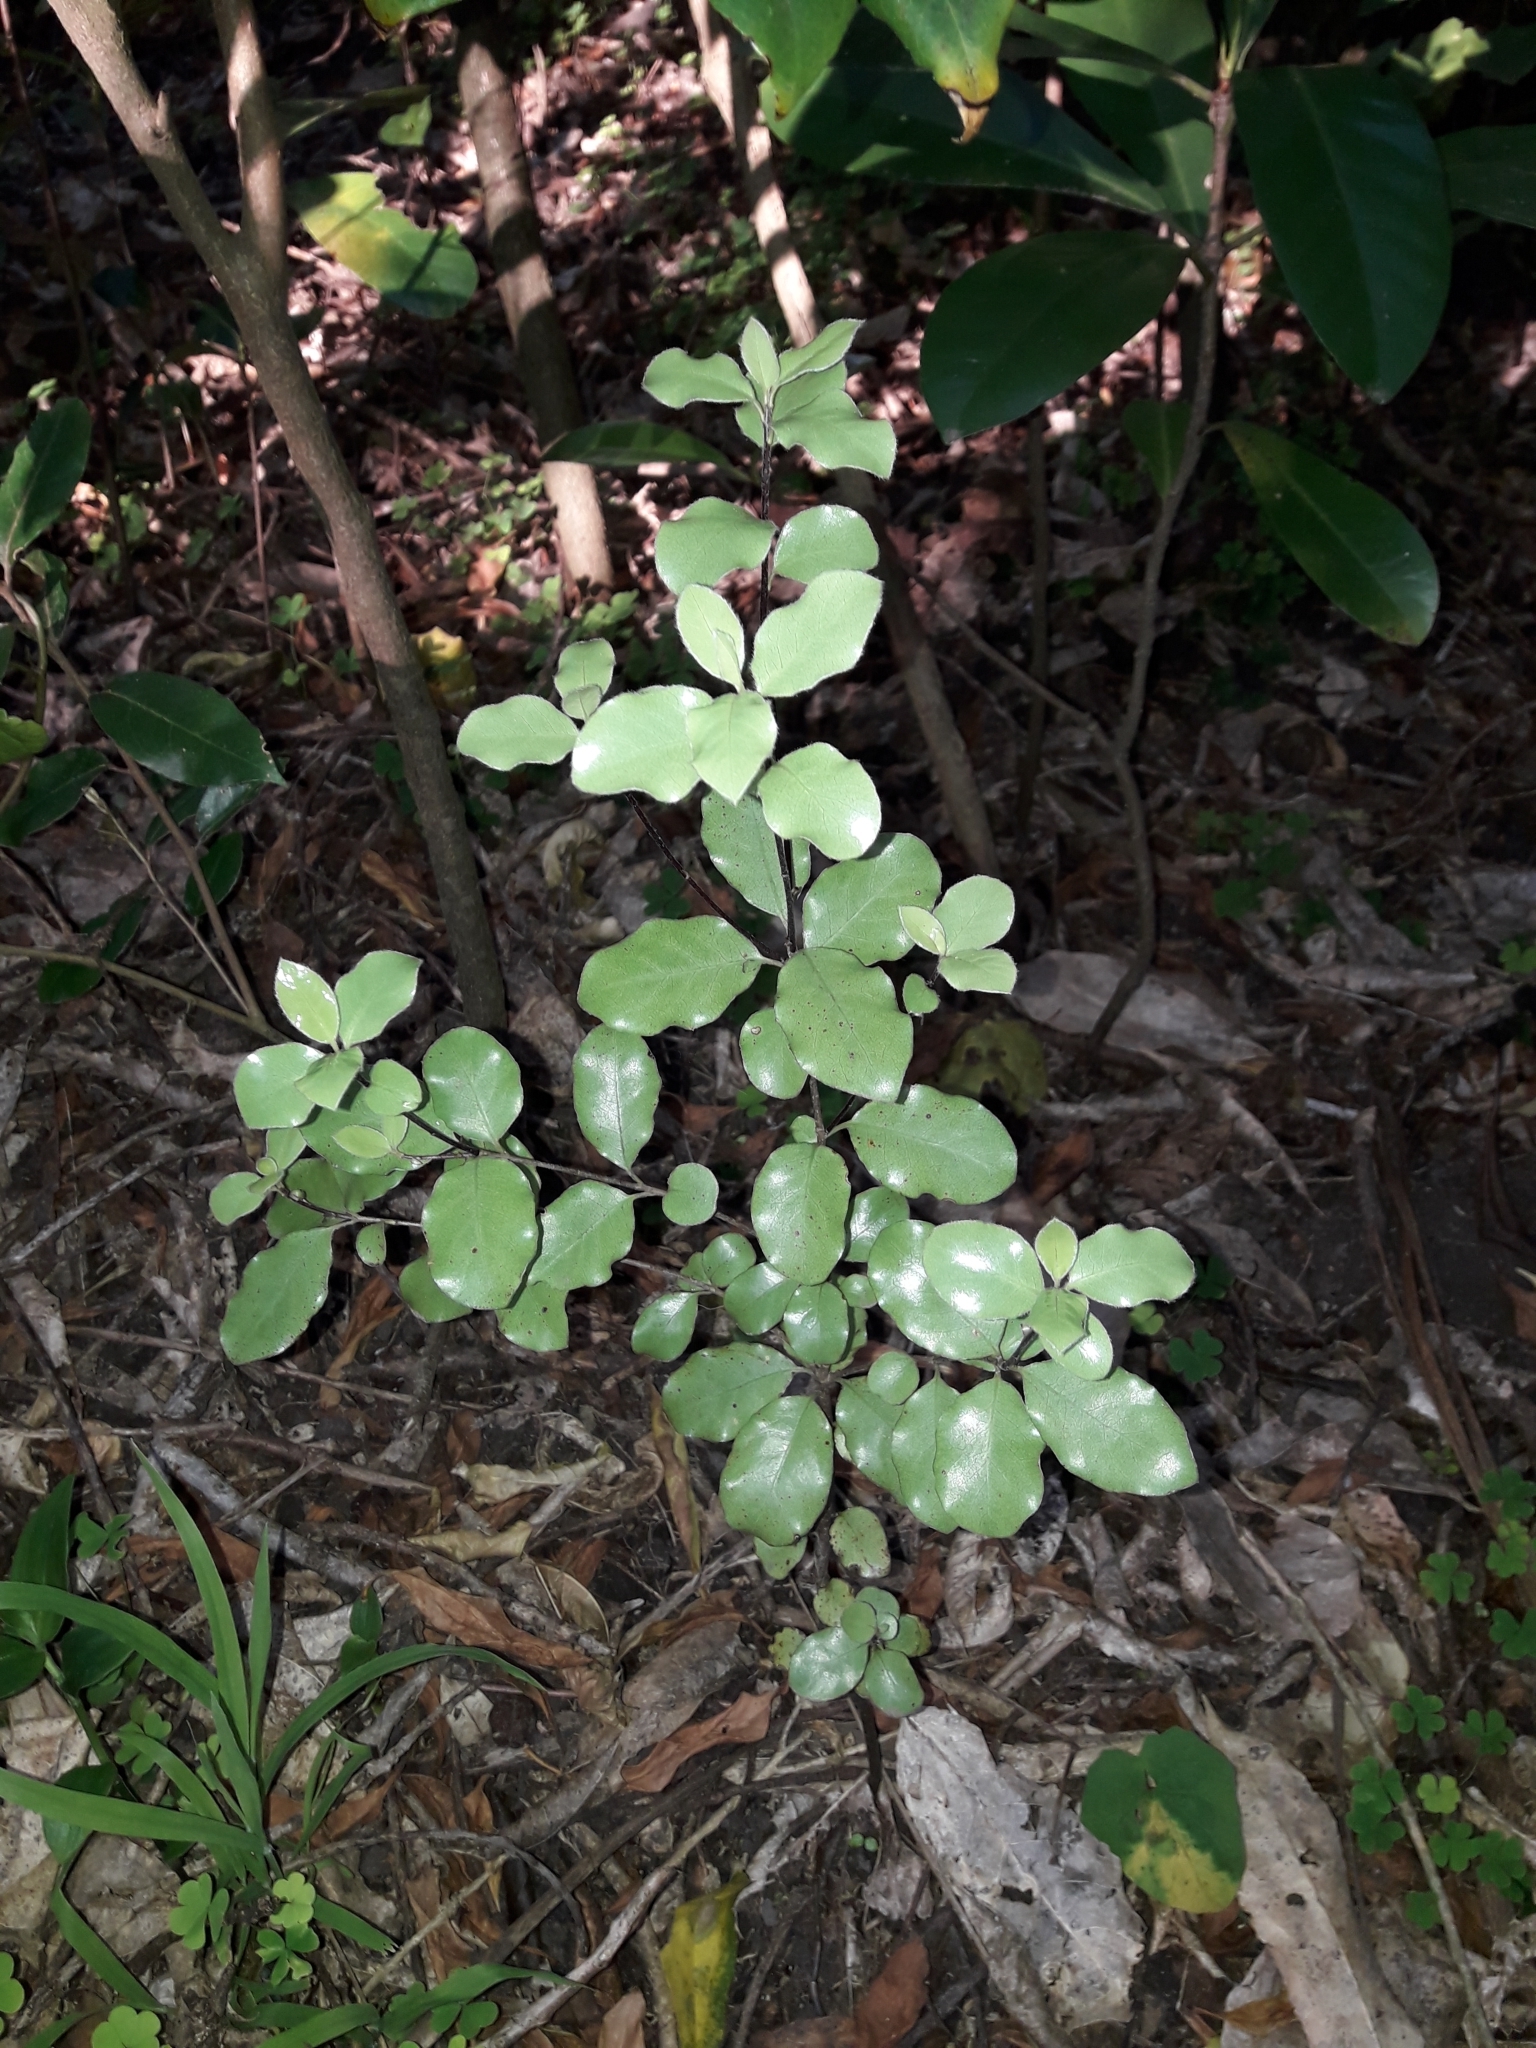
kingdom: Plantae
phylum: Tracheophyta
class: Magnoliopsida
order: Apiales
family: Pittosporaceae
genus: Pittosporum
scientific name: Pittosporum tenuifolium
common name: Kohuhu
